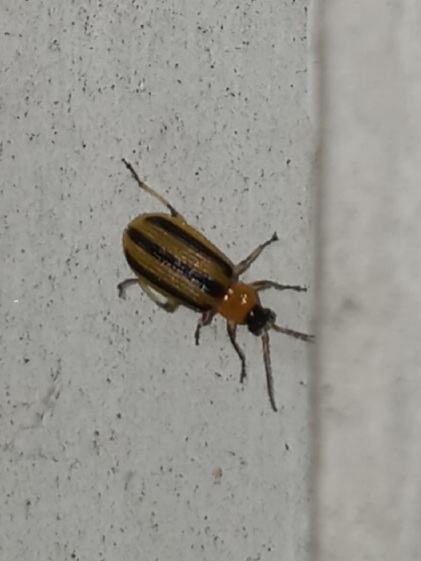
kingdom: Animalia
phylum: Arthropoda
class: Insecta
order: Coleoptera
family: Chrysomelidae
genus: Acalymma
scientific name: Acalymma vittatum
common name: Striped cucumber beetle
